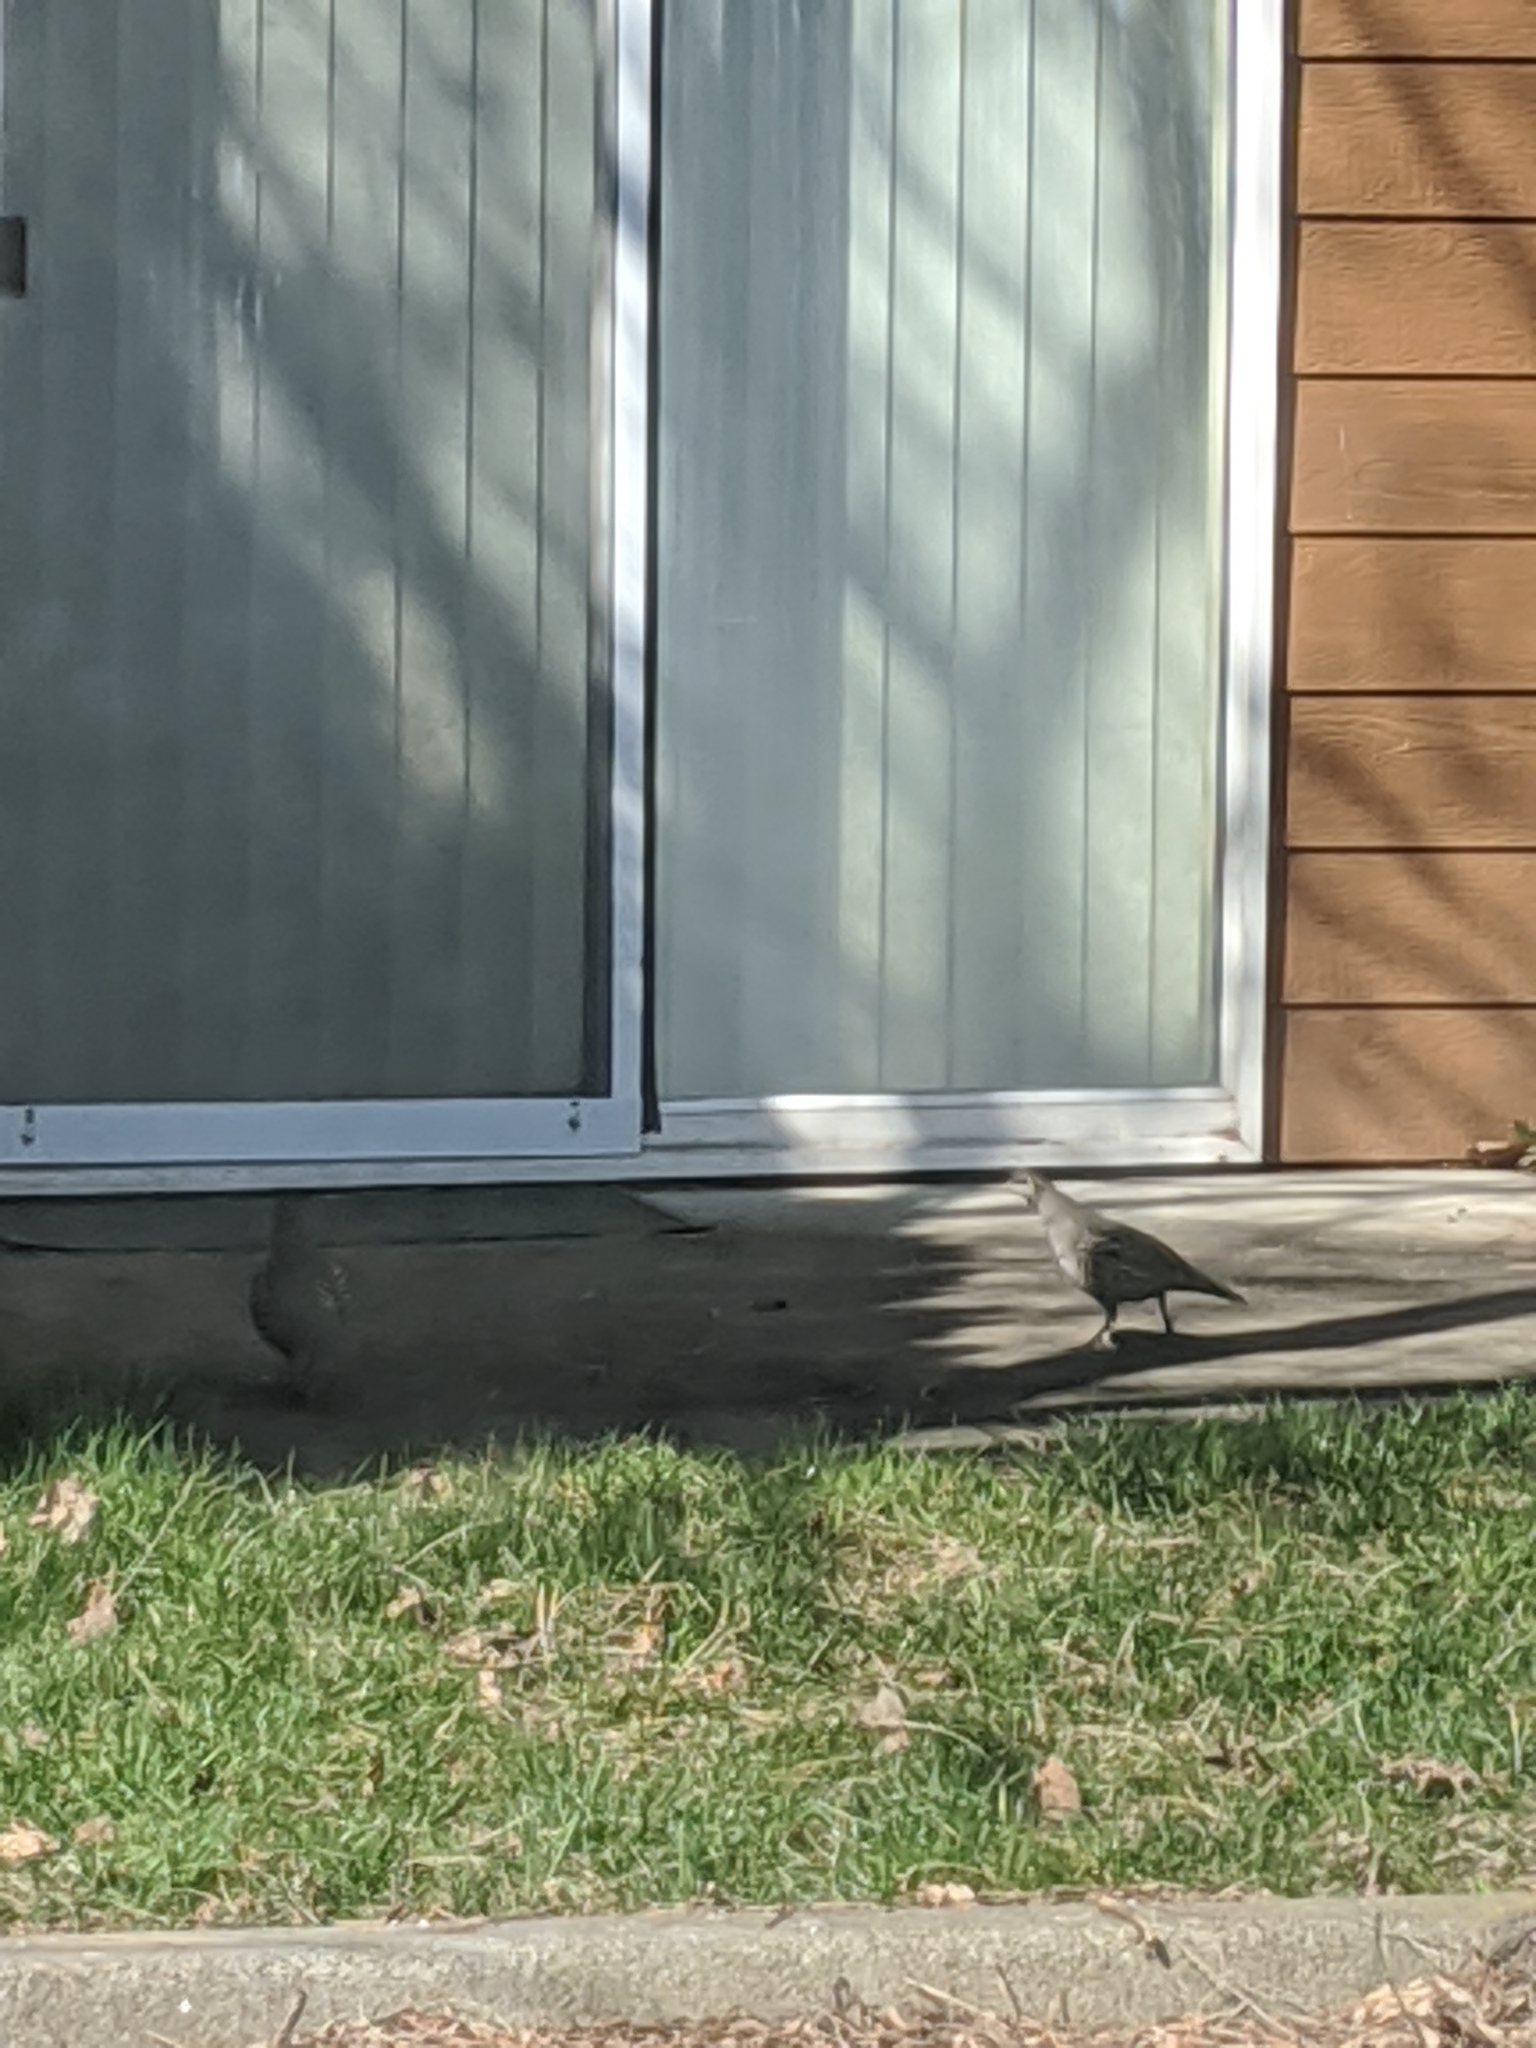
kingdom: Animalia
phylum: Chordata
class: Aves
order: Galliformes
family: Odontophoridae
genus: Callipepla
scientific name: Callipepla californica
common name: California quail
